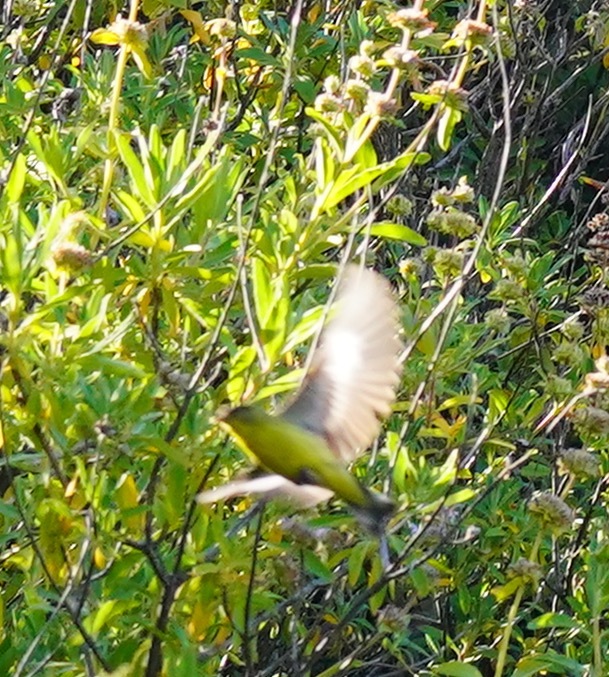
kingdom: Animalia
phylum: Chordata
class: Aves
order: Passeriformes
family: Fringillidae
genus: Spinus
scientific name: Spinus psaltria
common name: Lesser goldfinch
